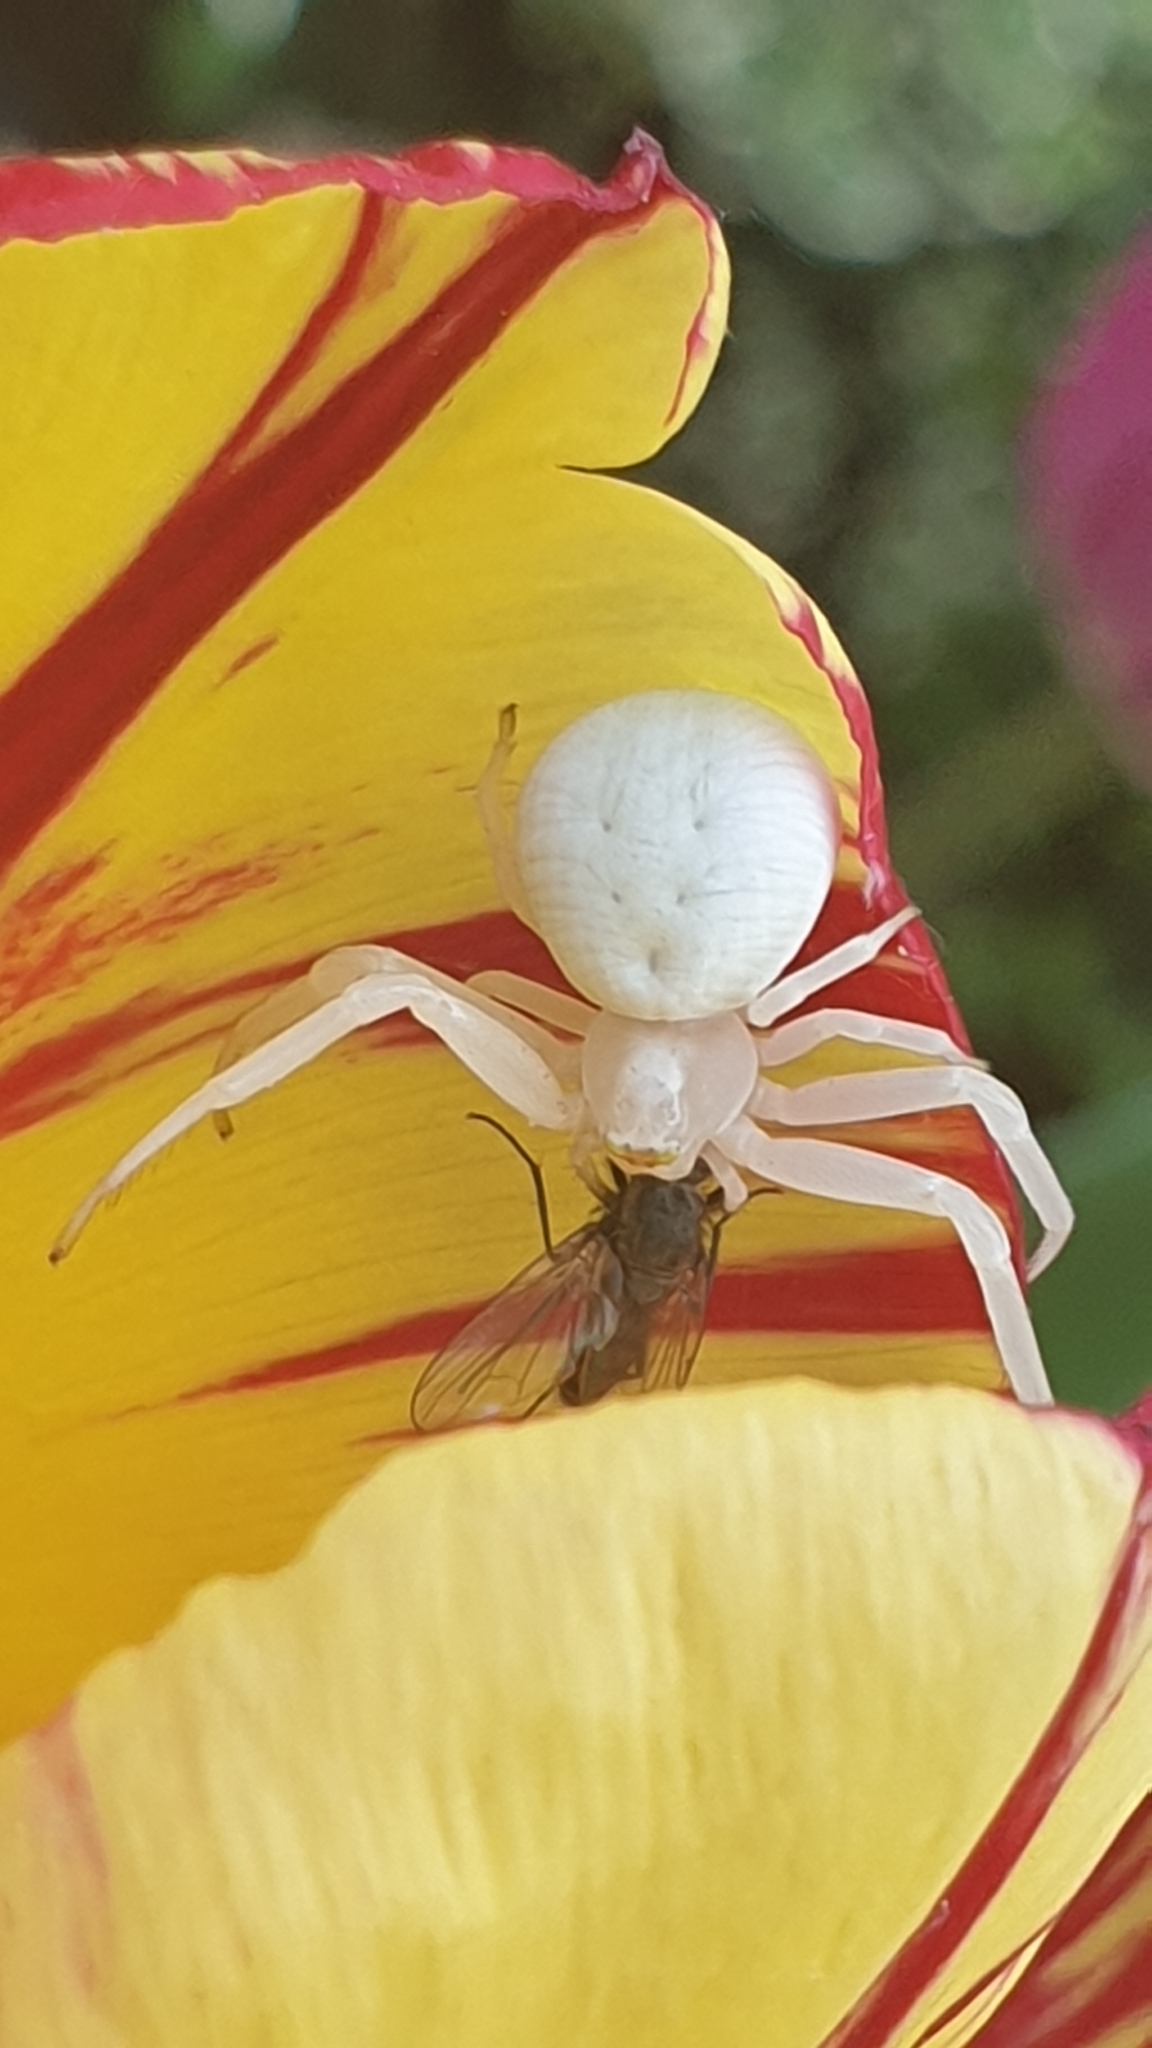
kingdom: Animalia
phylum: Arthropoda
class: Arachnida
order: Araneae
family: Thomisidae
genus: Misumena
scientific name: Misumena vatia
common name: Goldenrod crab spider
